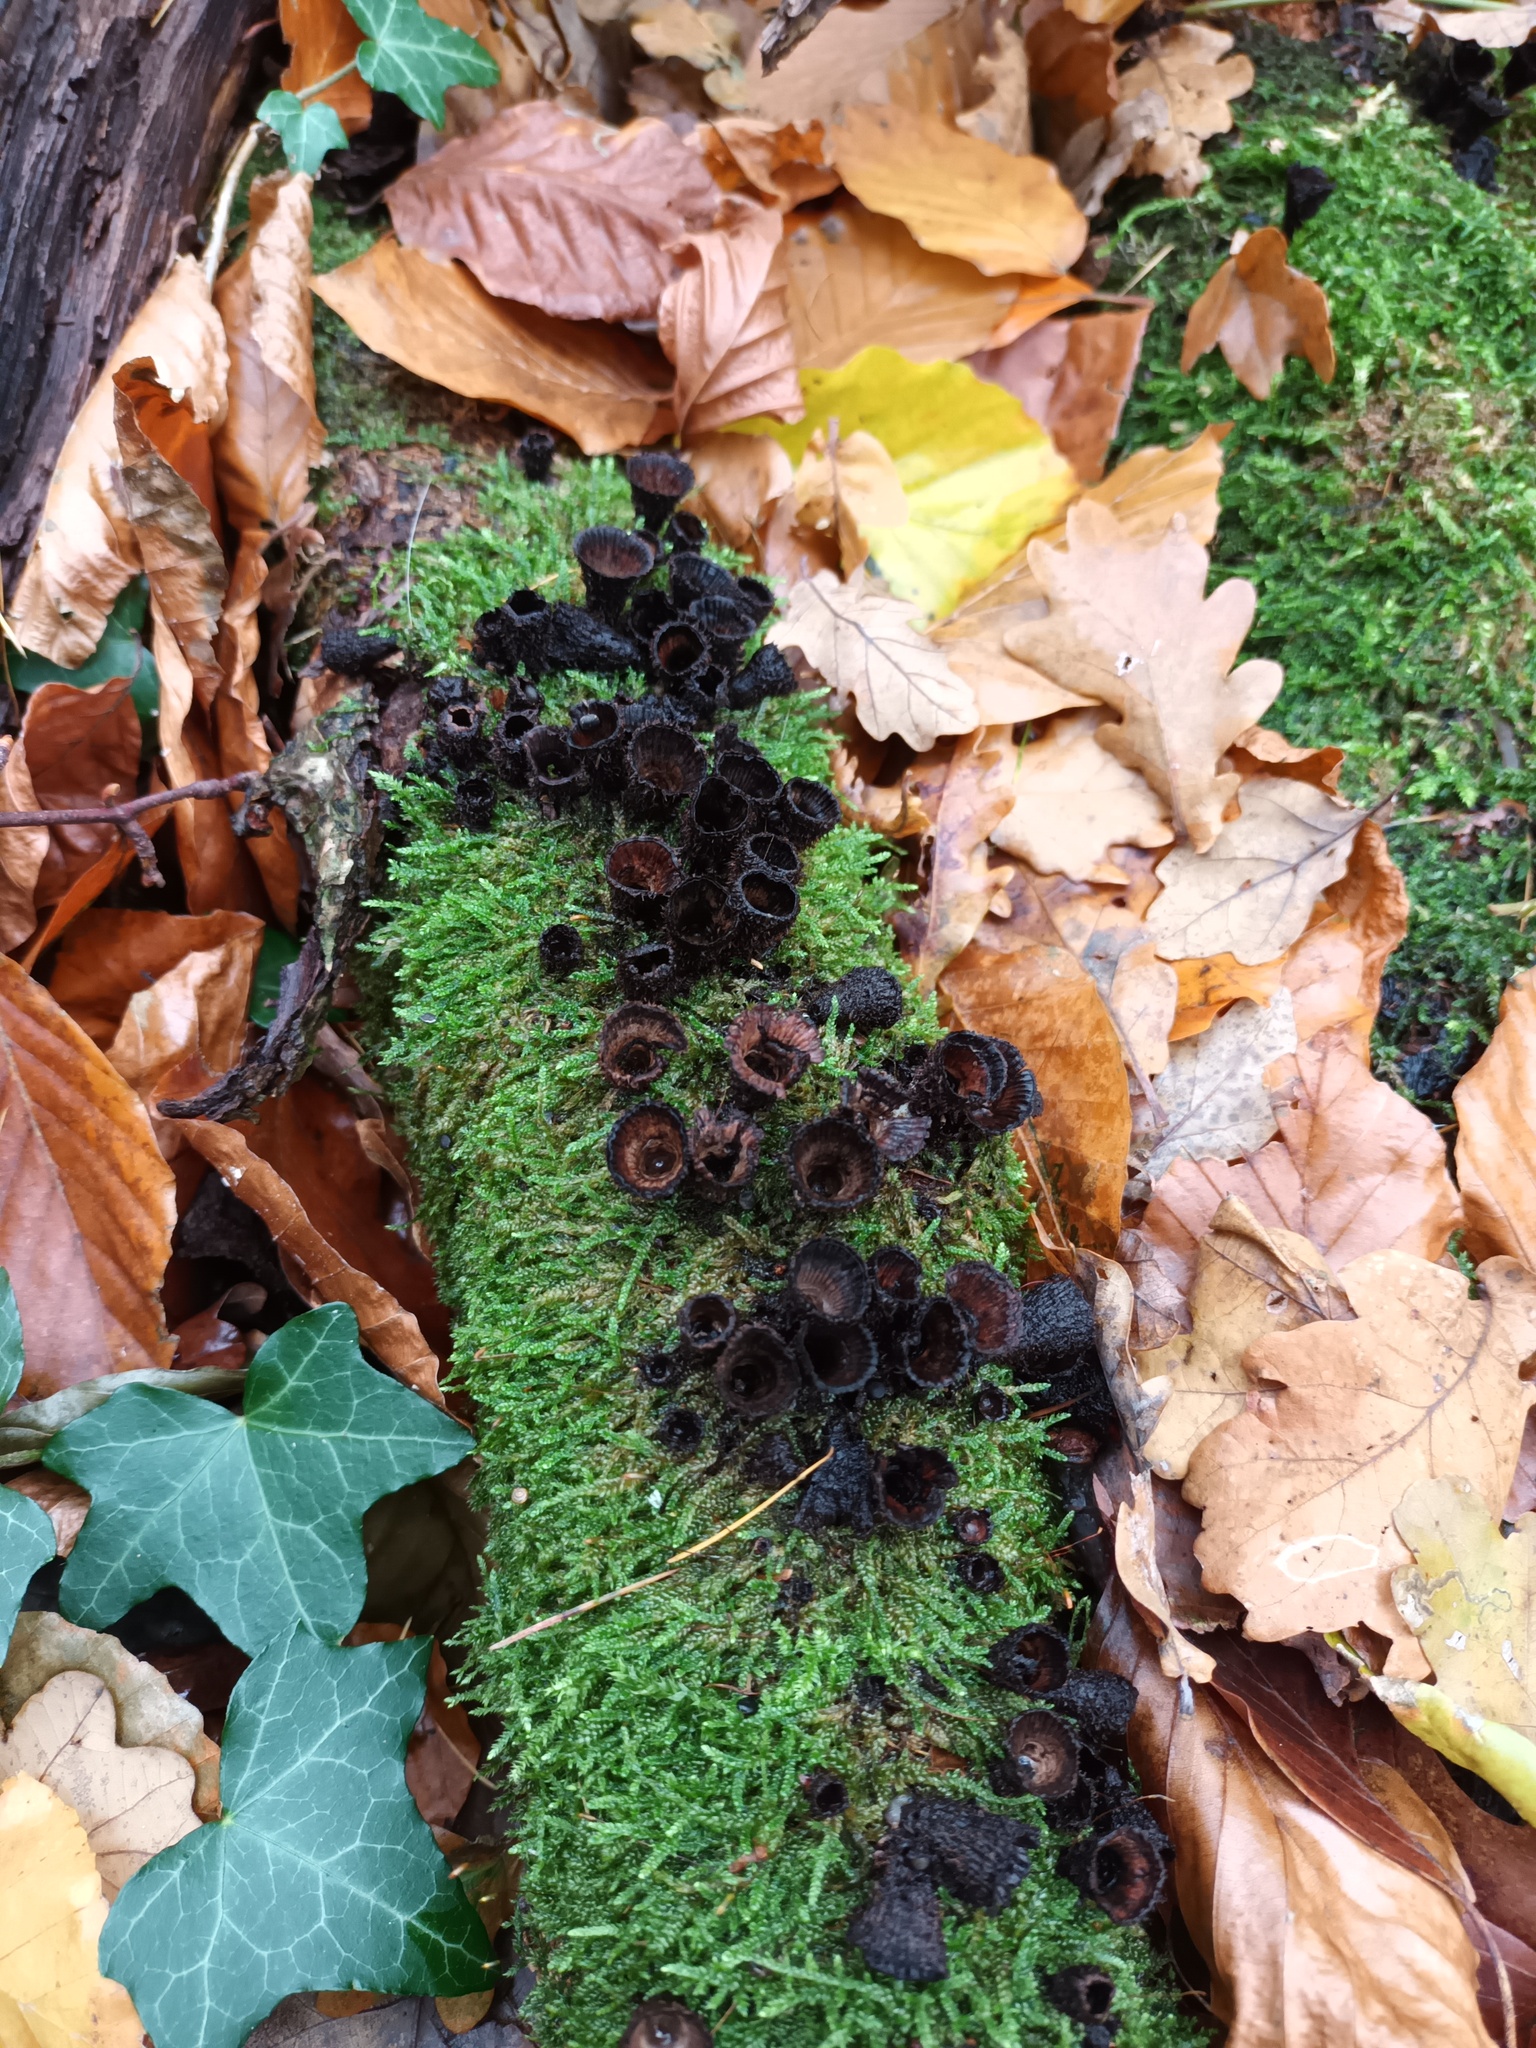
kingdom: Fungi
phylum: Basidiomycota
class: Agaricomycetes
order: Agaricales
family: Agaricaceae
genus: Cyathus
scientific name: Cyathus striatus
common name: Fluted bird's nest
